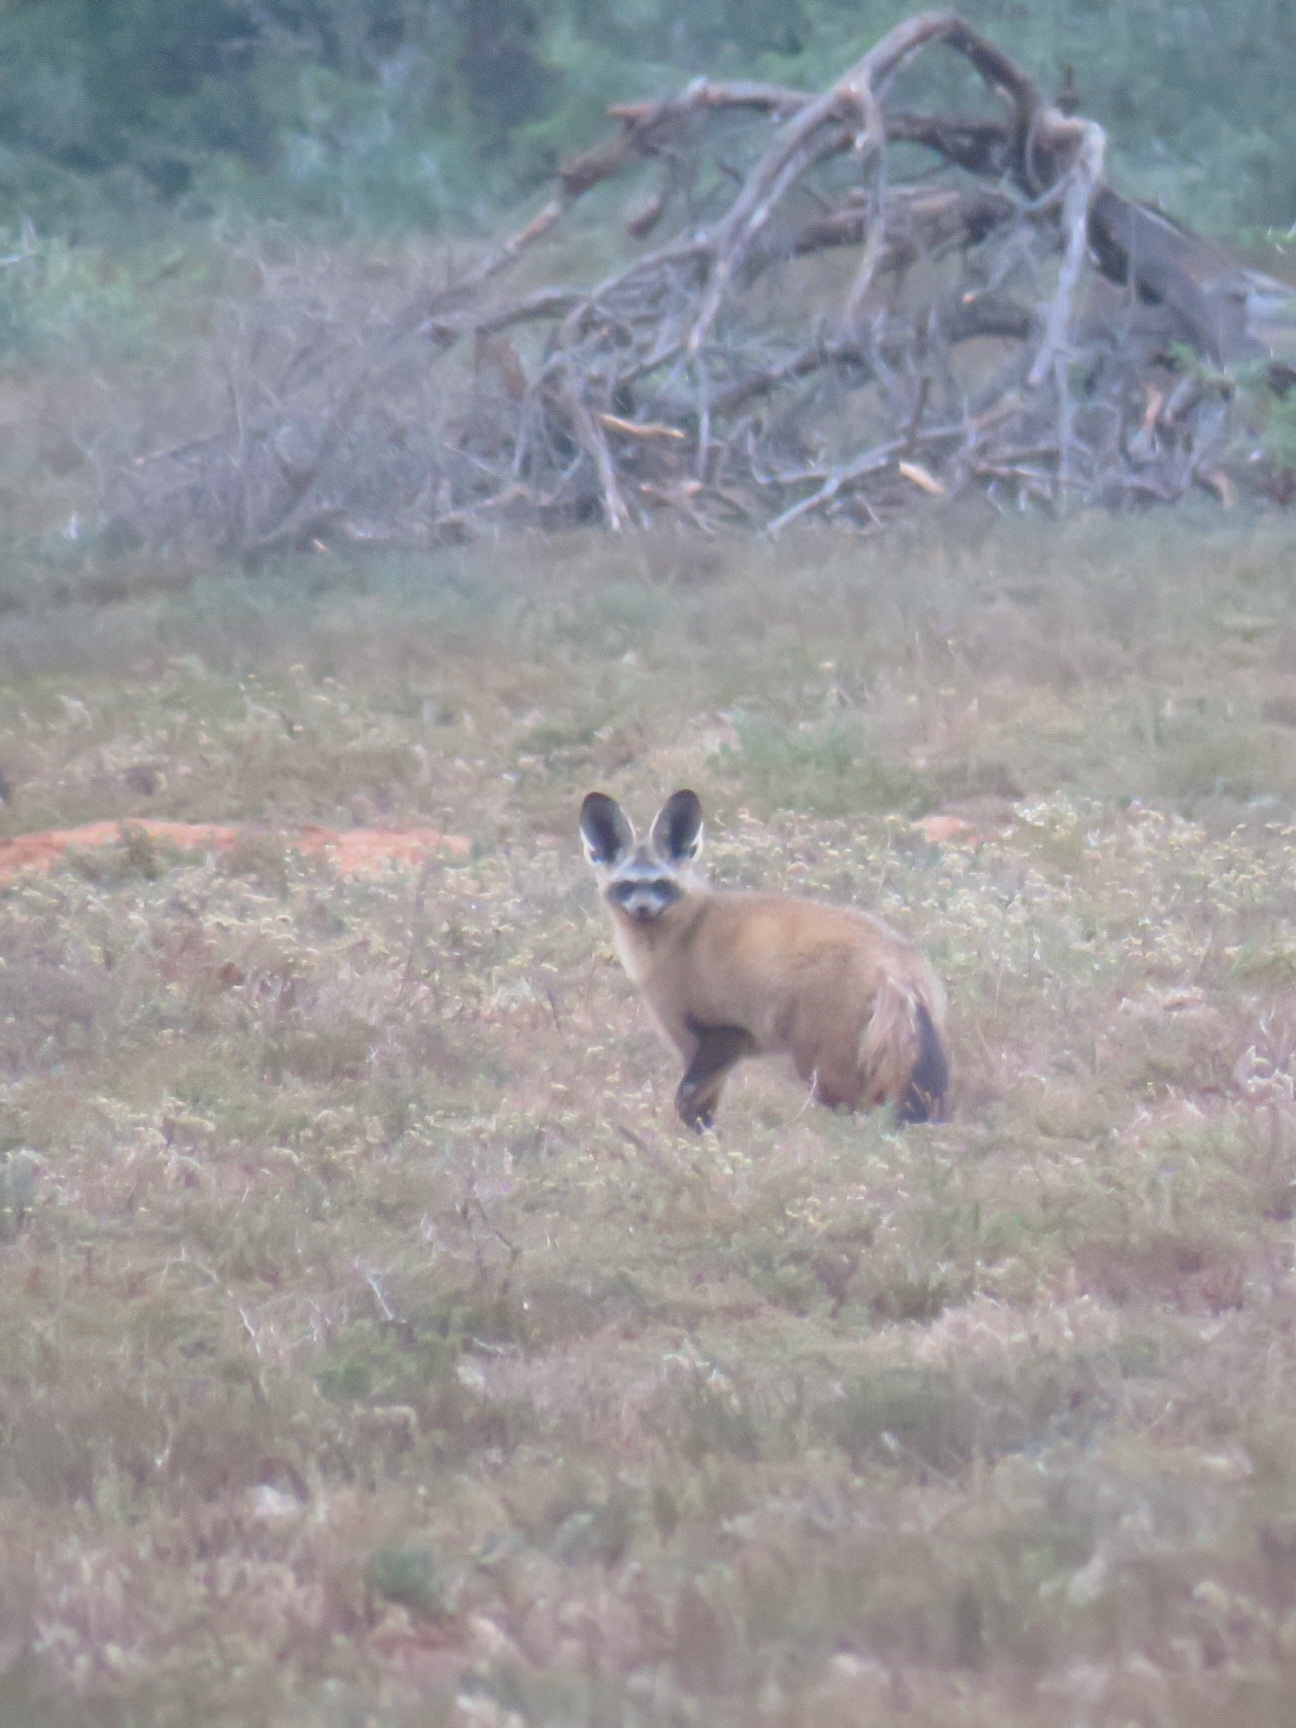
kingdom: Animalia
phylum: Chordata
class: Mammalia
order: Carnivora
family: Canidae
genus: Otocyon
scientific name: Otocyon megalotis
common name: Bat-eared fox
